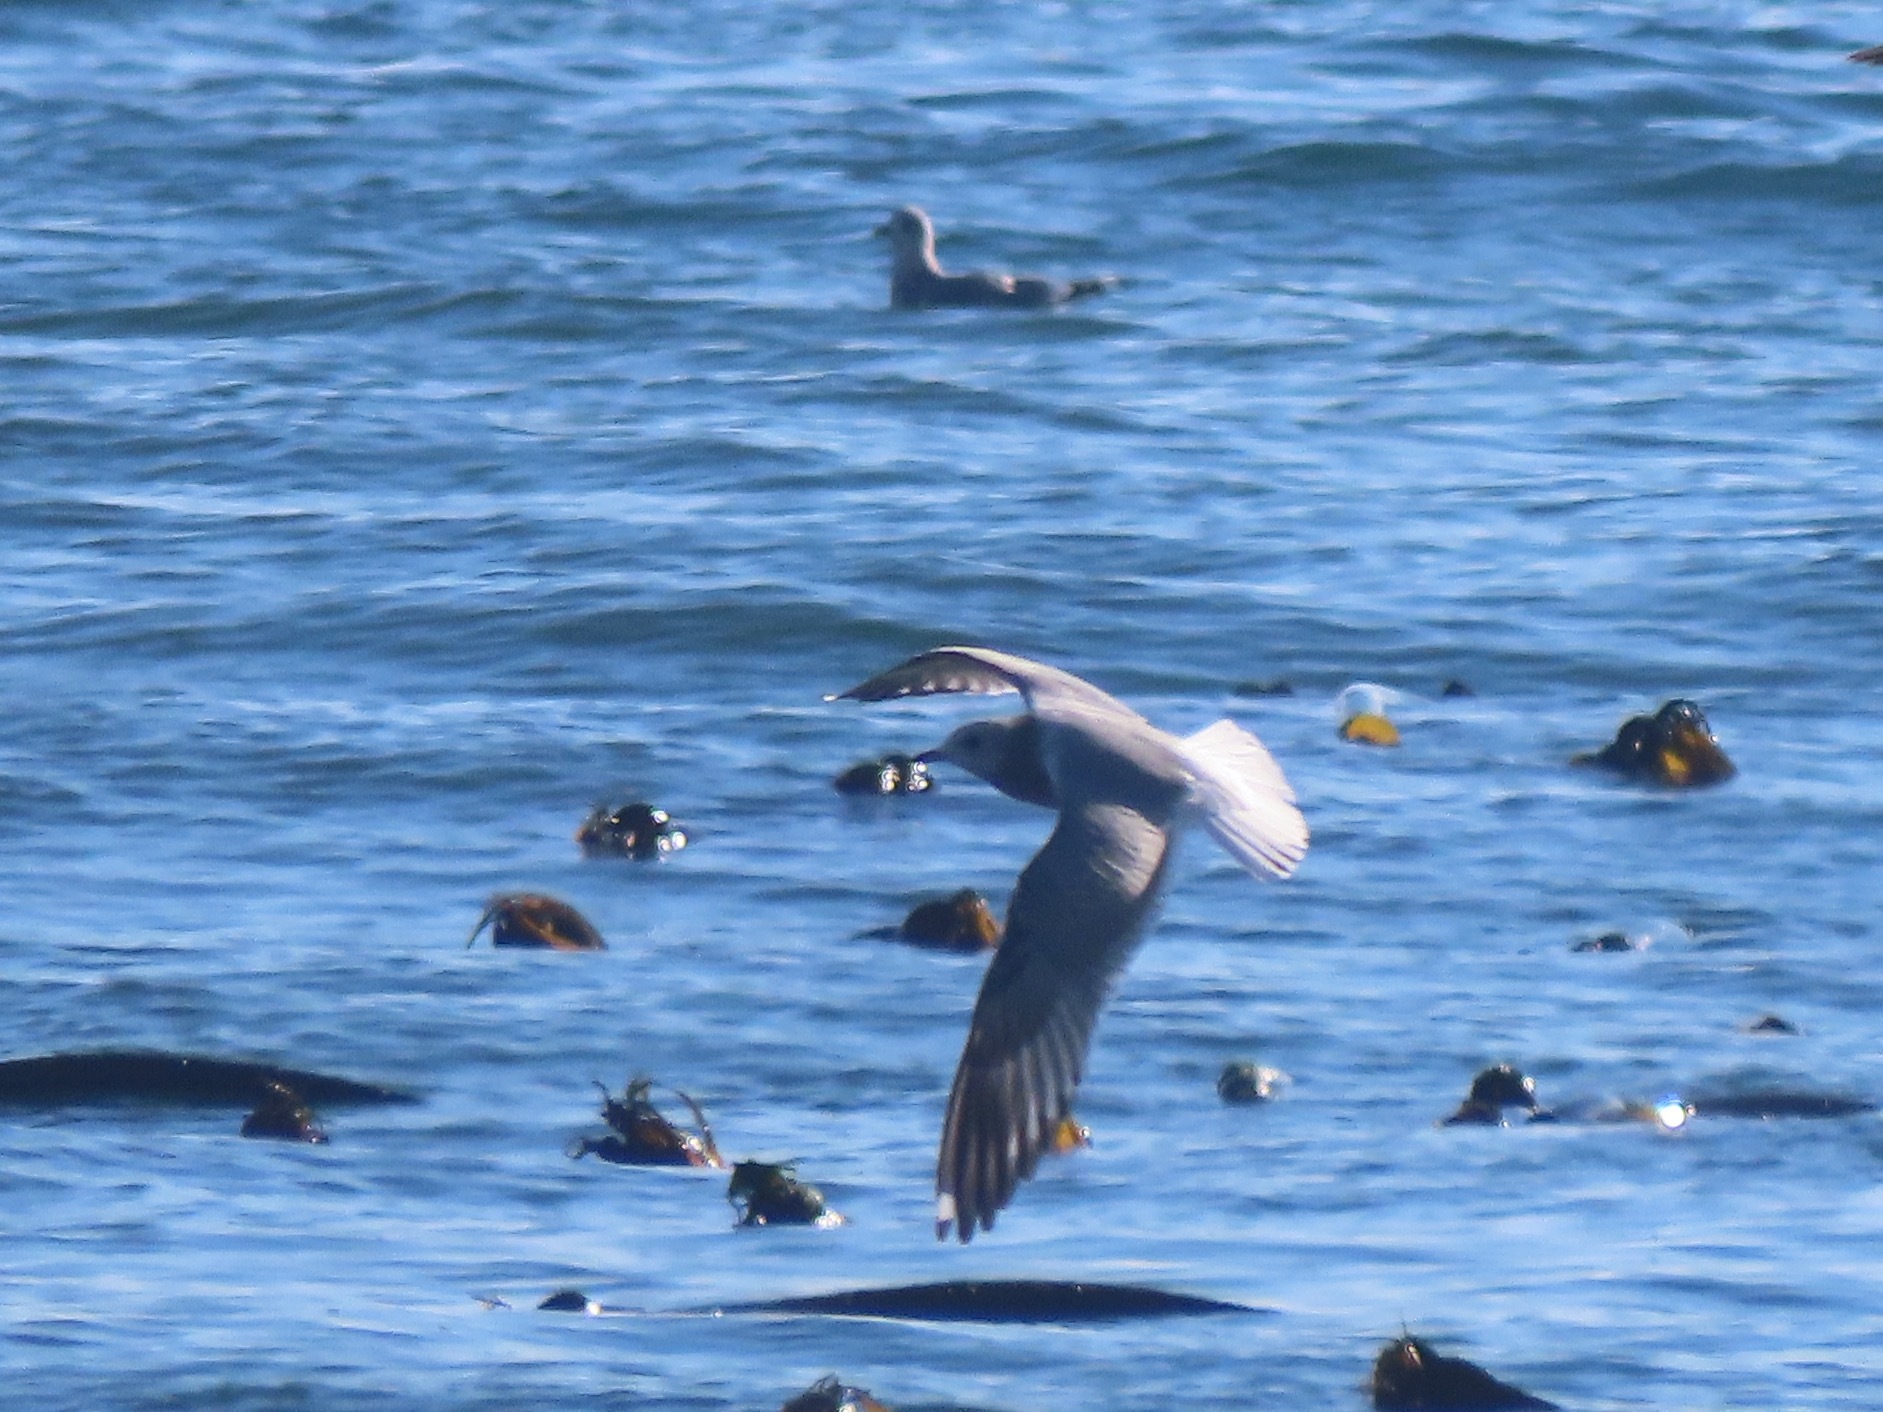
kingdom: Animalia
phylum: Chordata
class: Aves
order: Charadriiformes
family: Laridae
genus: Larus
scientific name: Larus brachyrhynchus
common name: Short-billed gull
